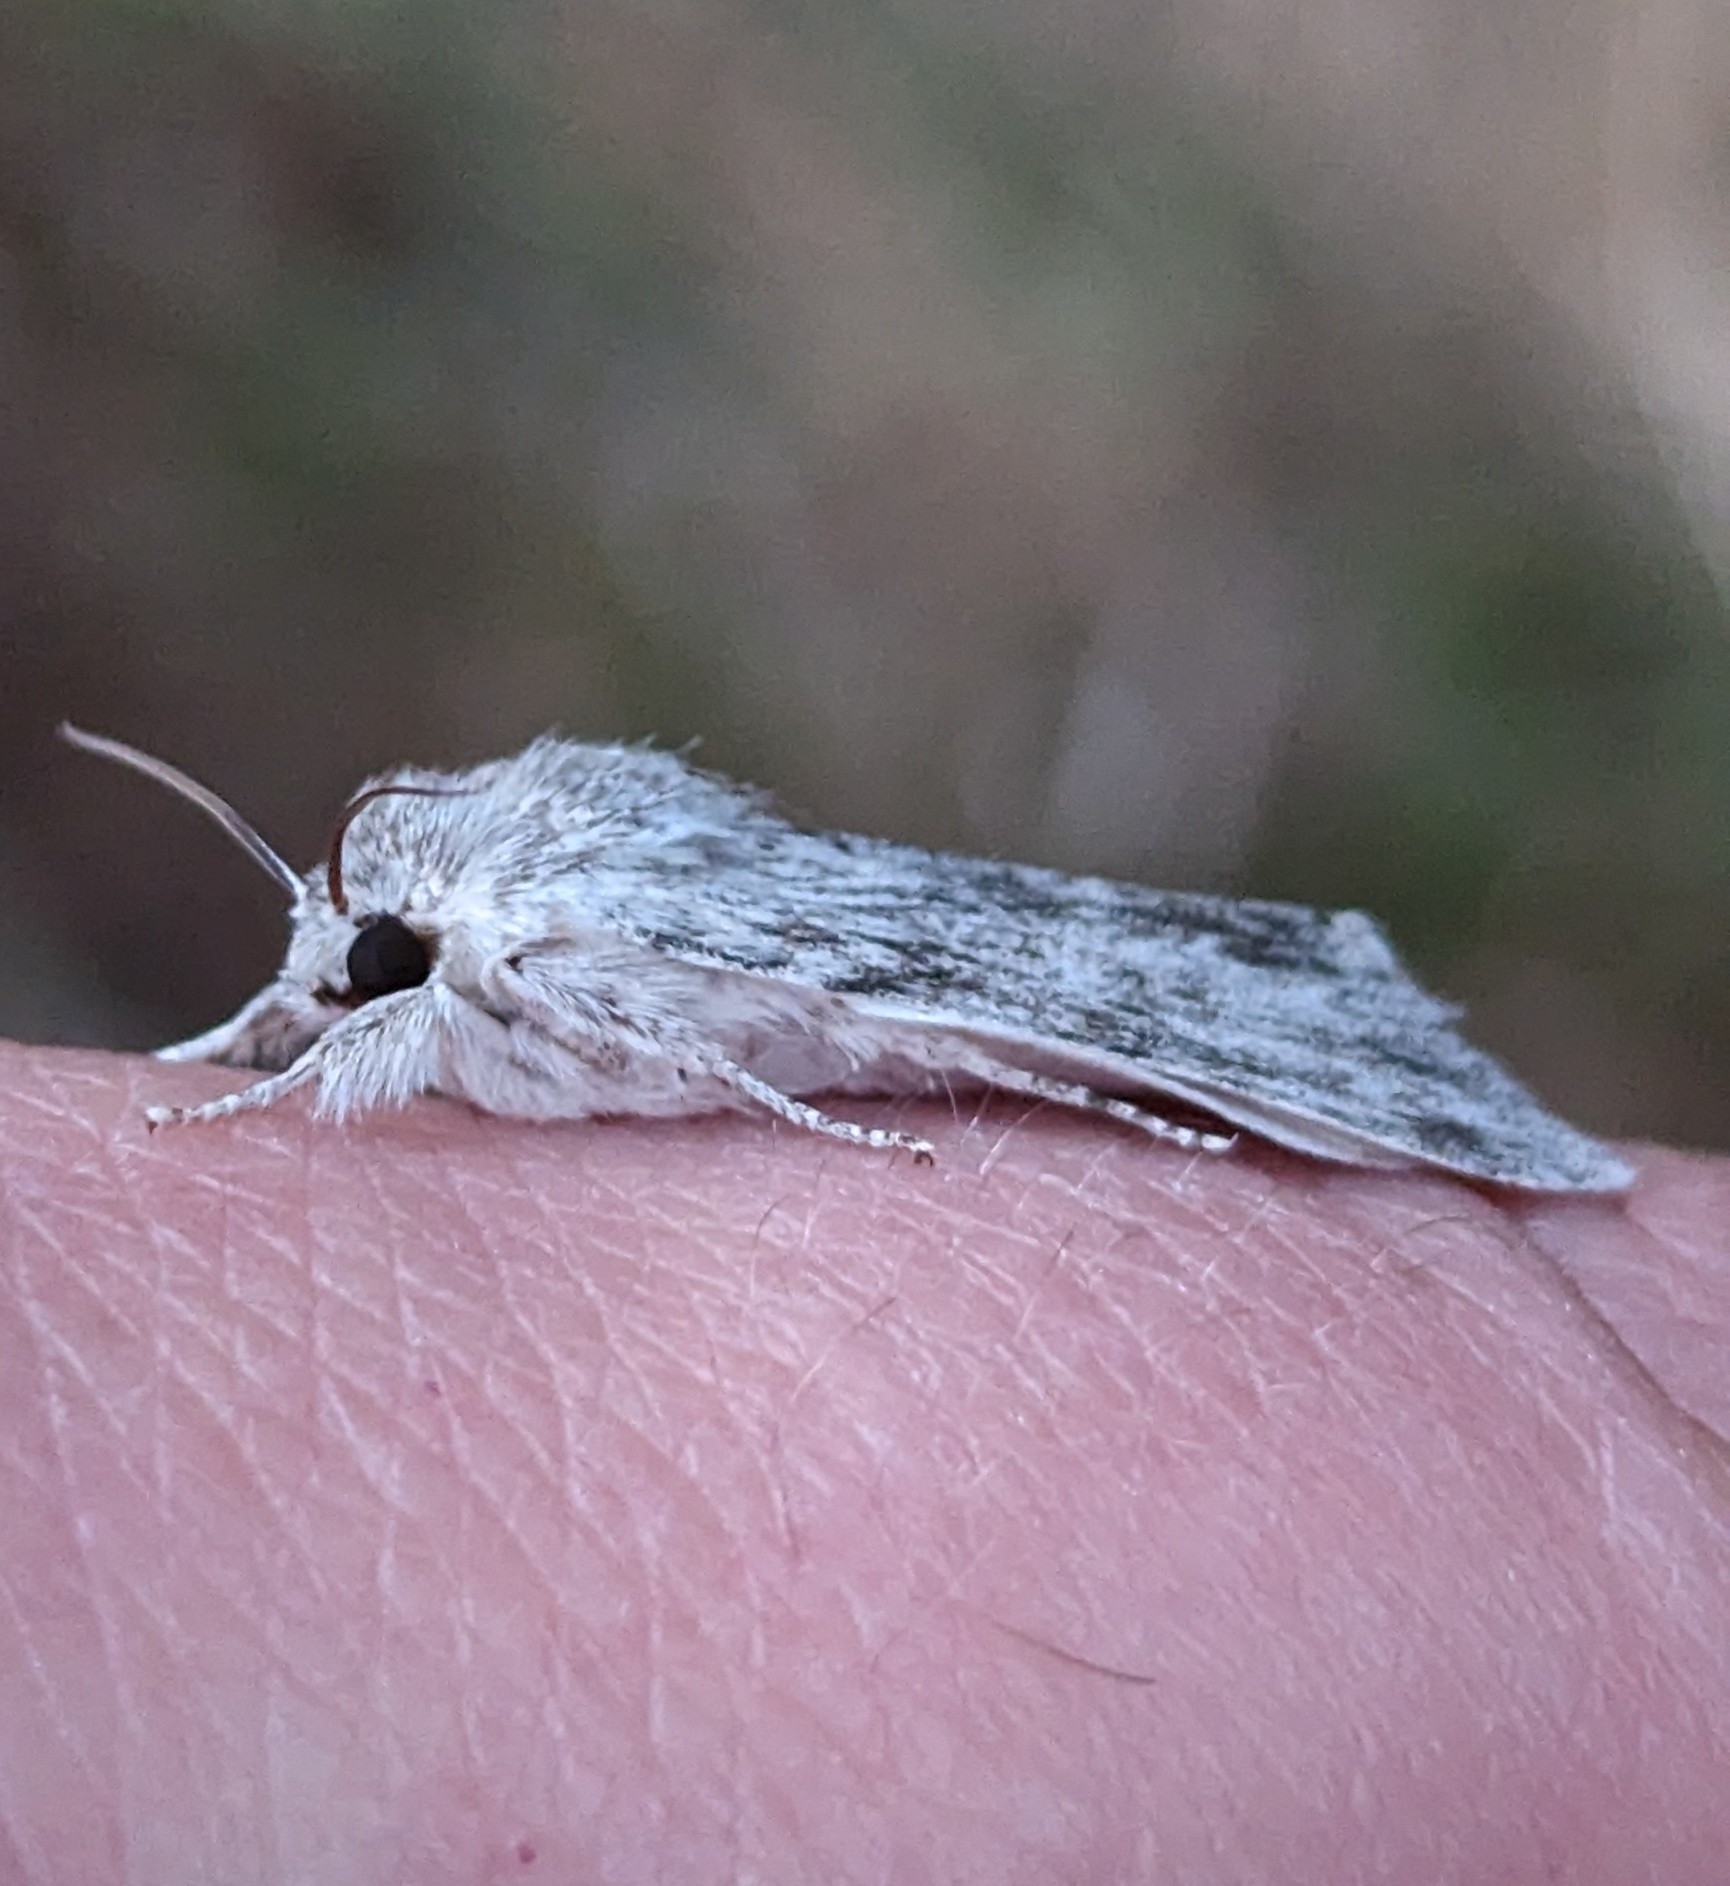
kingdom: Animalia
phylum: Arthropoda
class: Insecta
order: Lepidoptera
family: Noctuidae
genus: Acronicta
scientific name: Acronicta oblinita
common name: Smeared dagger
